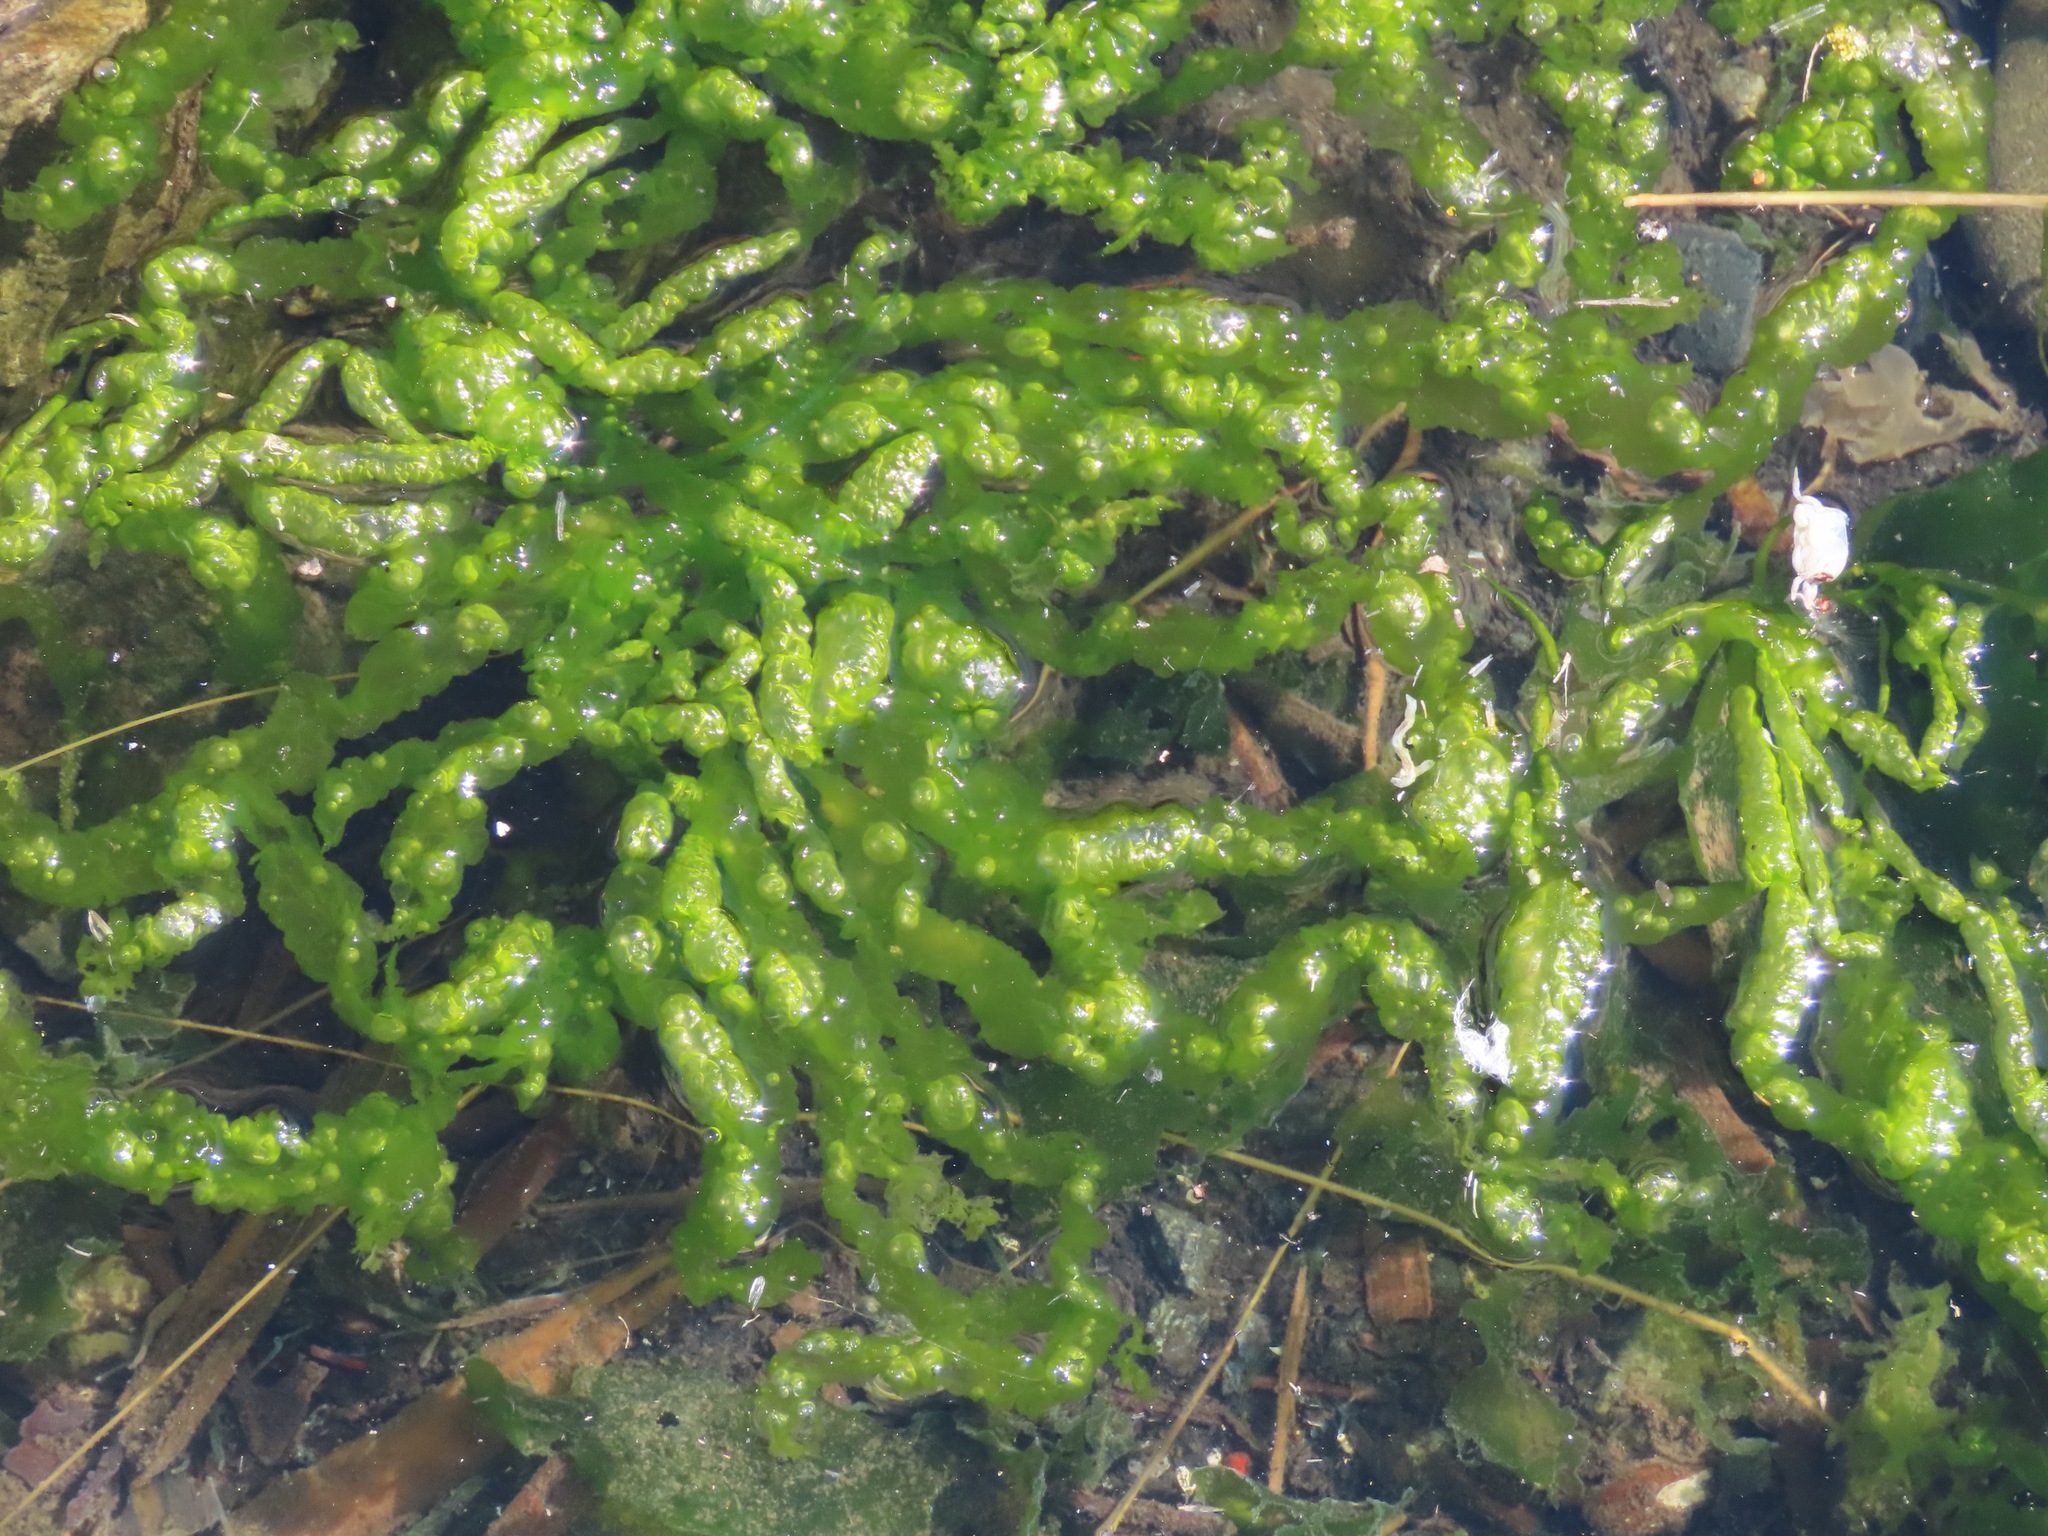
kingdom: Plantae
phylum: Chlorophyta
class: Ulvophyceae
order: Ulvales
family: Ulvaceae
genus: Ulva
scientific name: Ulva intestinalis
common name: Gut weed
